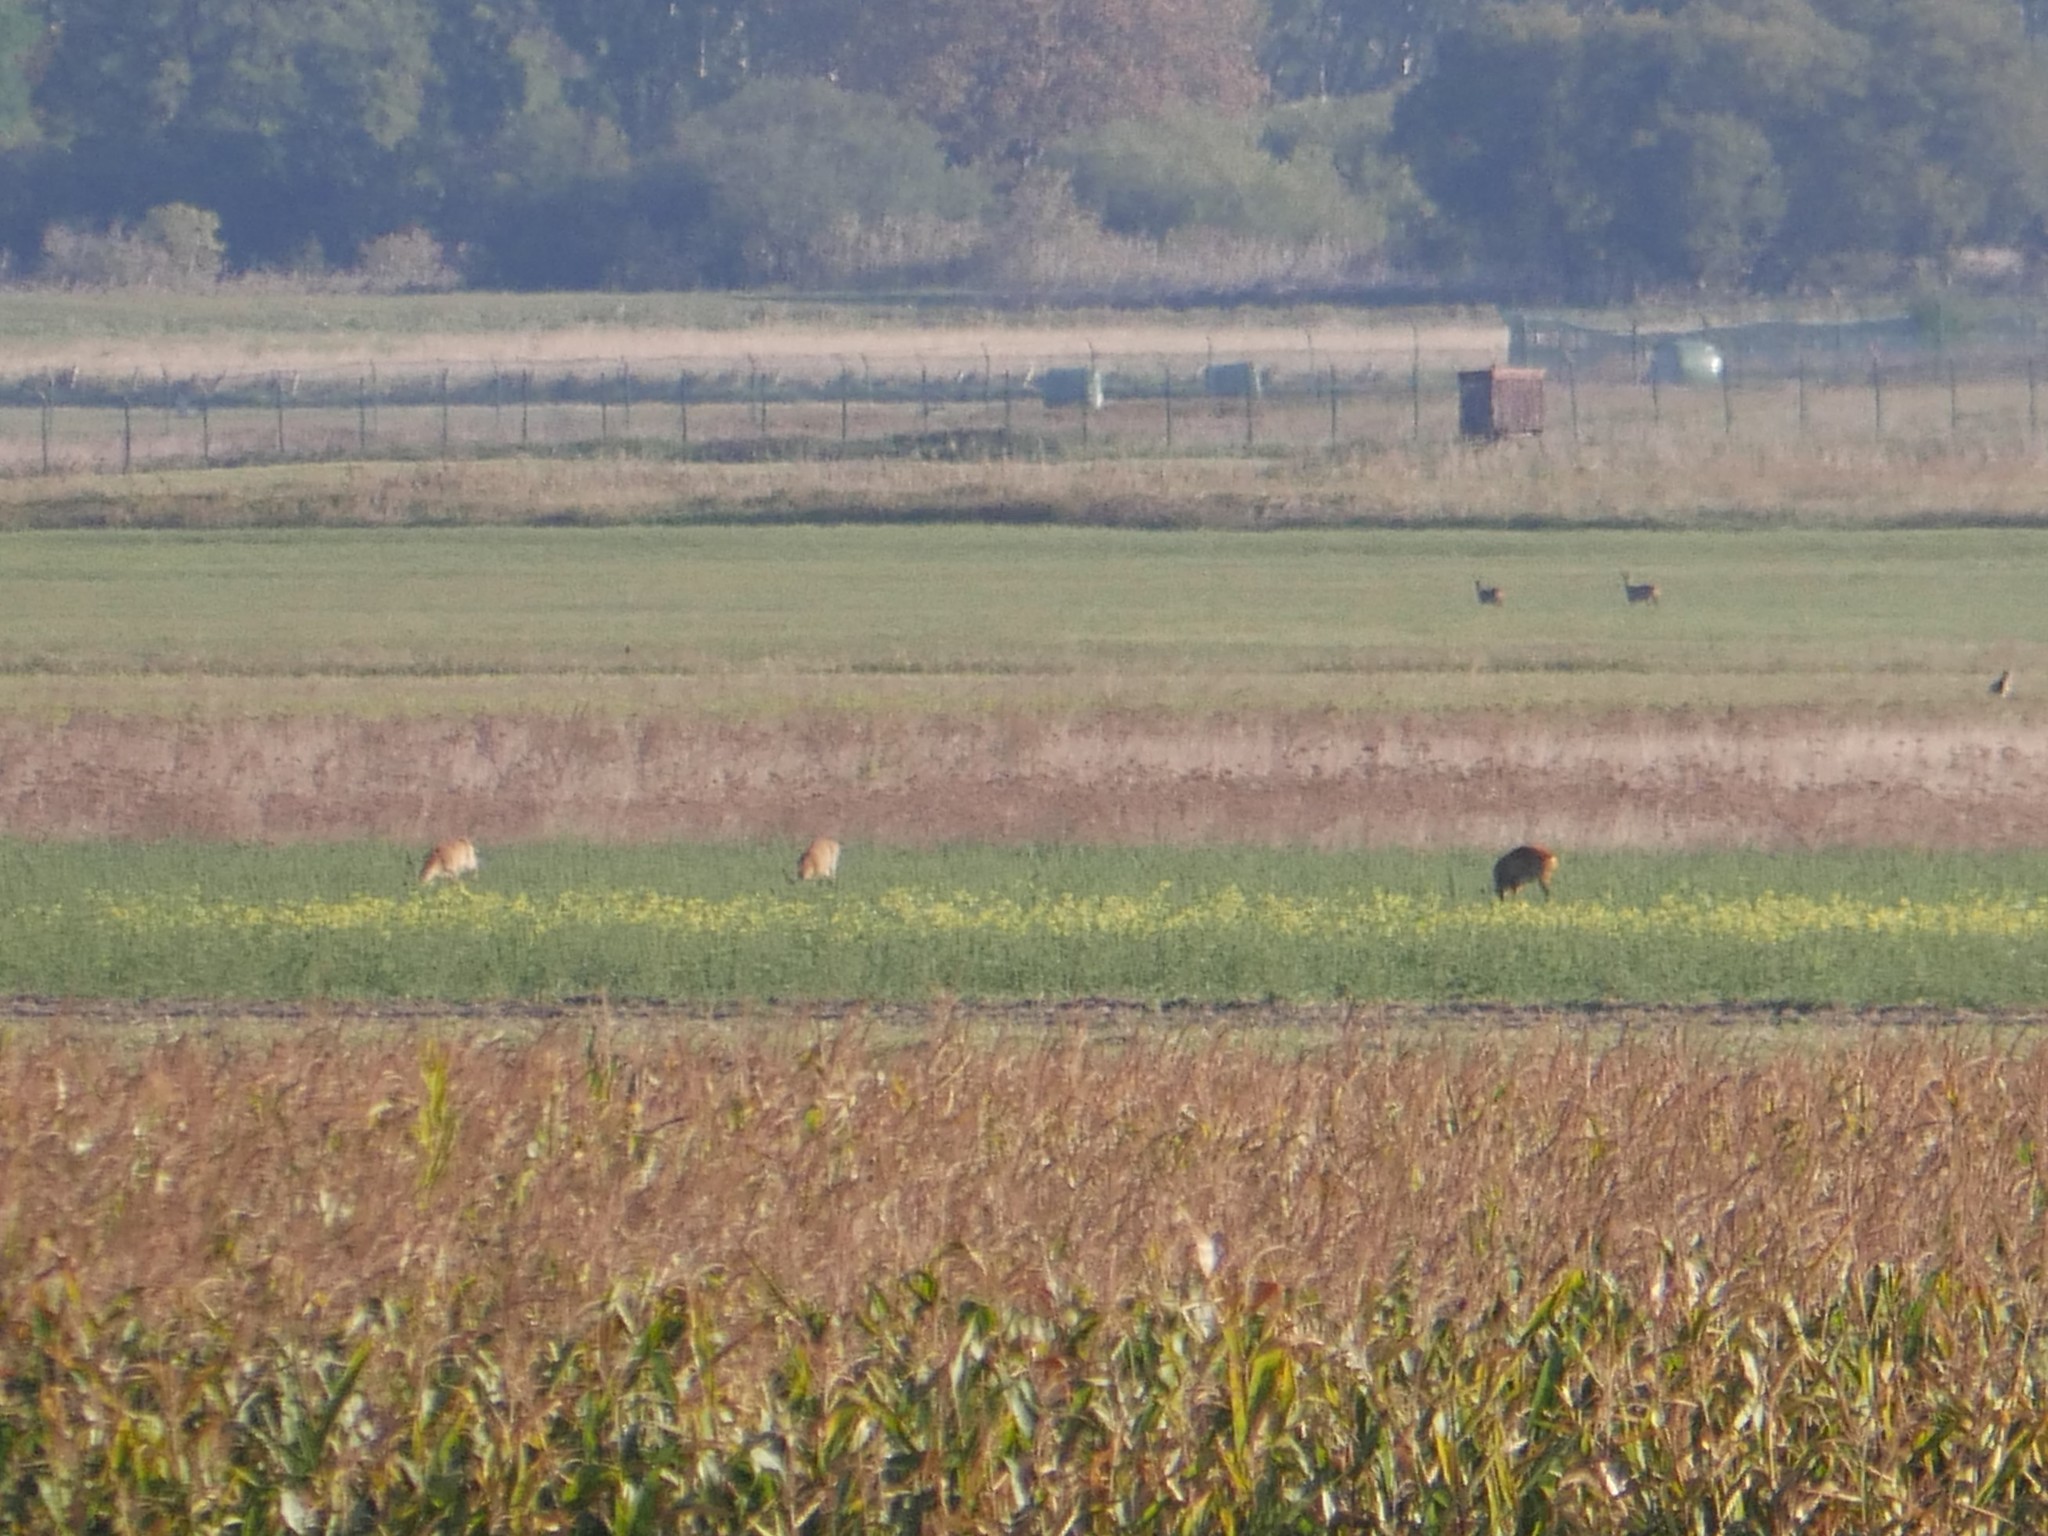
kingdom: Animalia
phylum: Chordata
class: Mammalia
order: Artiodactyla
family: Cervidae
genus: Capreolus
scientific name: Capreolus capreolus
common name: Western roe deer
